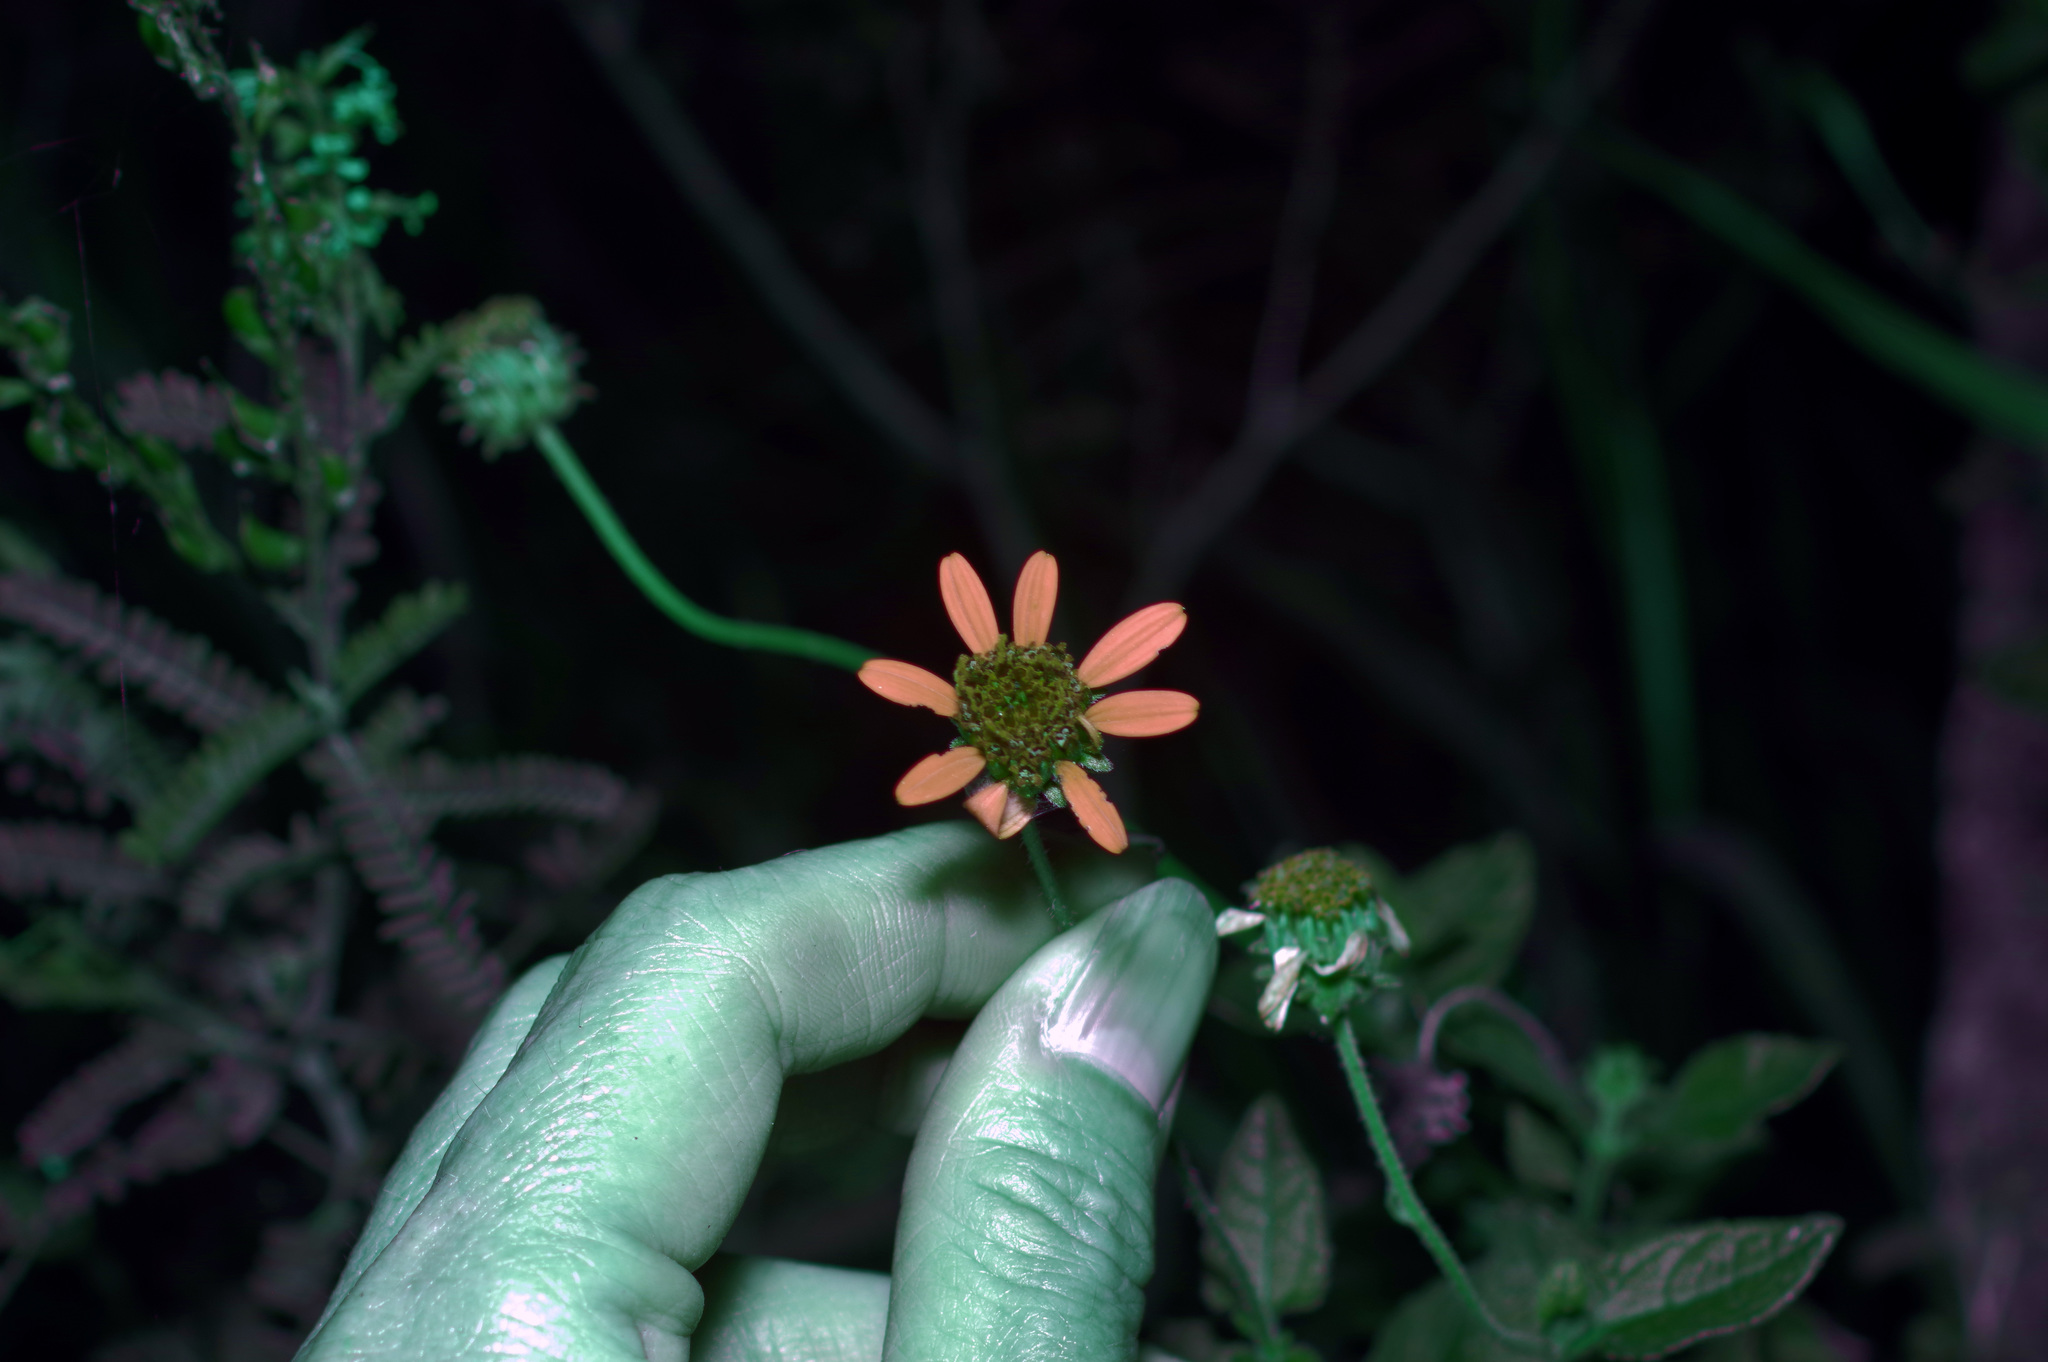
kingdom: Plantae
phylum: Tracheophyta
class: Magnoliopsida
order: Asterales
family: Asteraceae
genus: Simsia
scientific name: Simsia calva
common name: Awnless bush-sunflower
